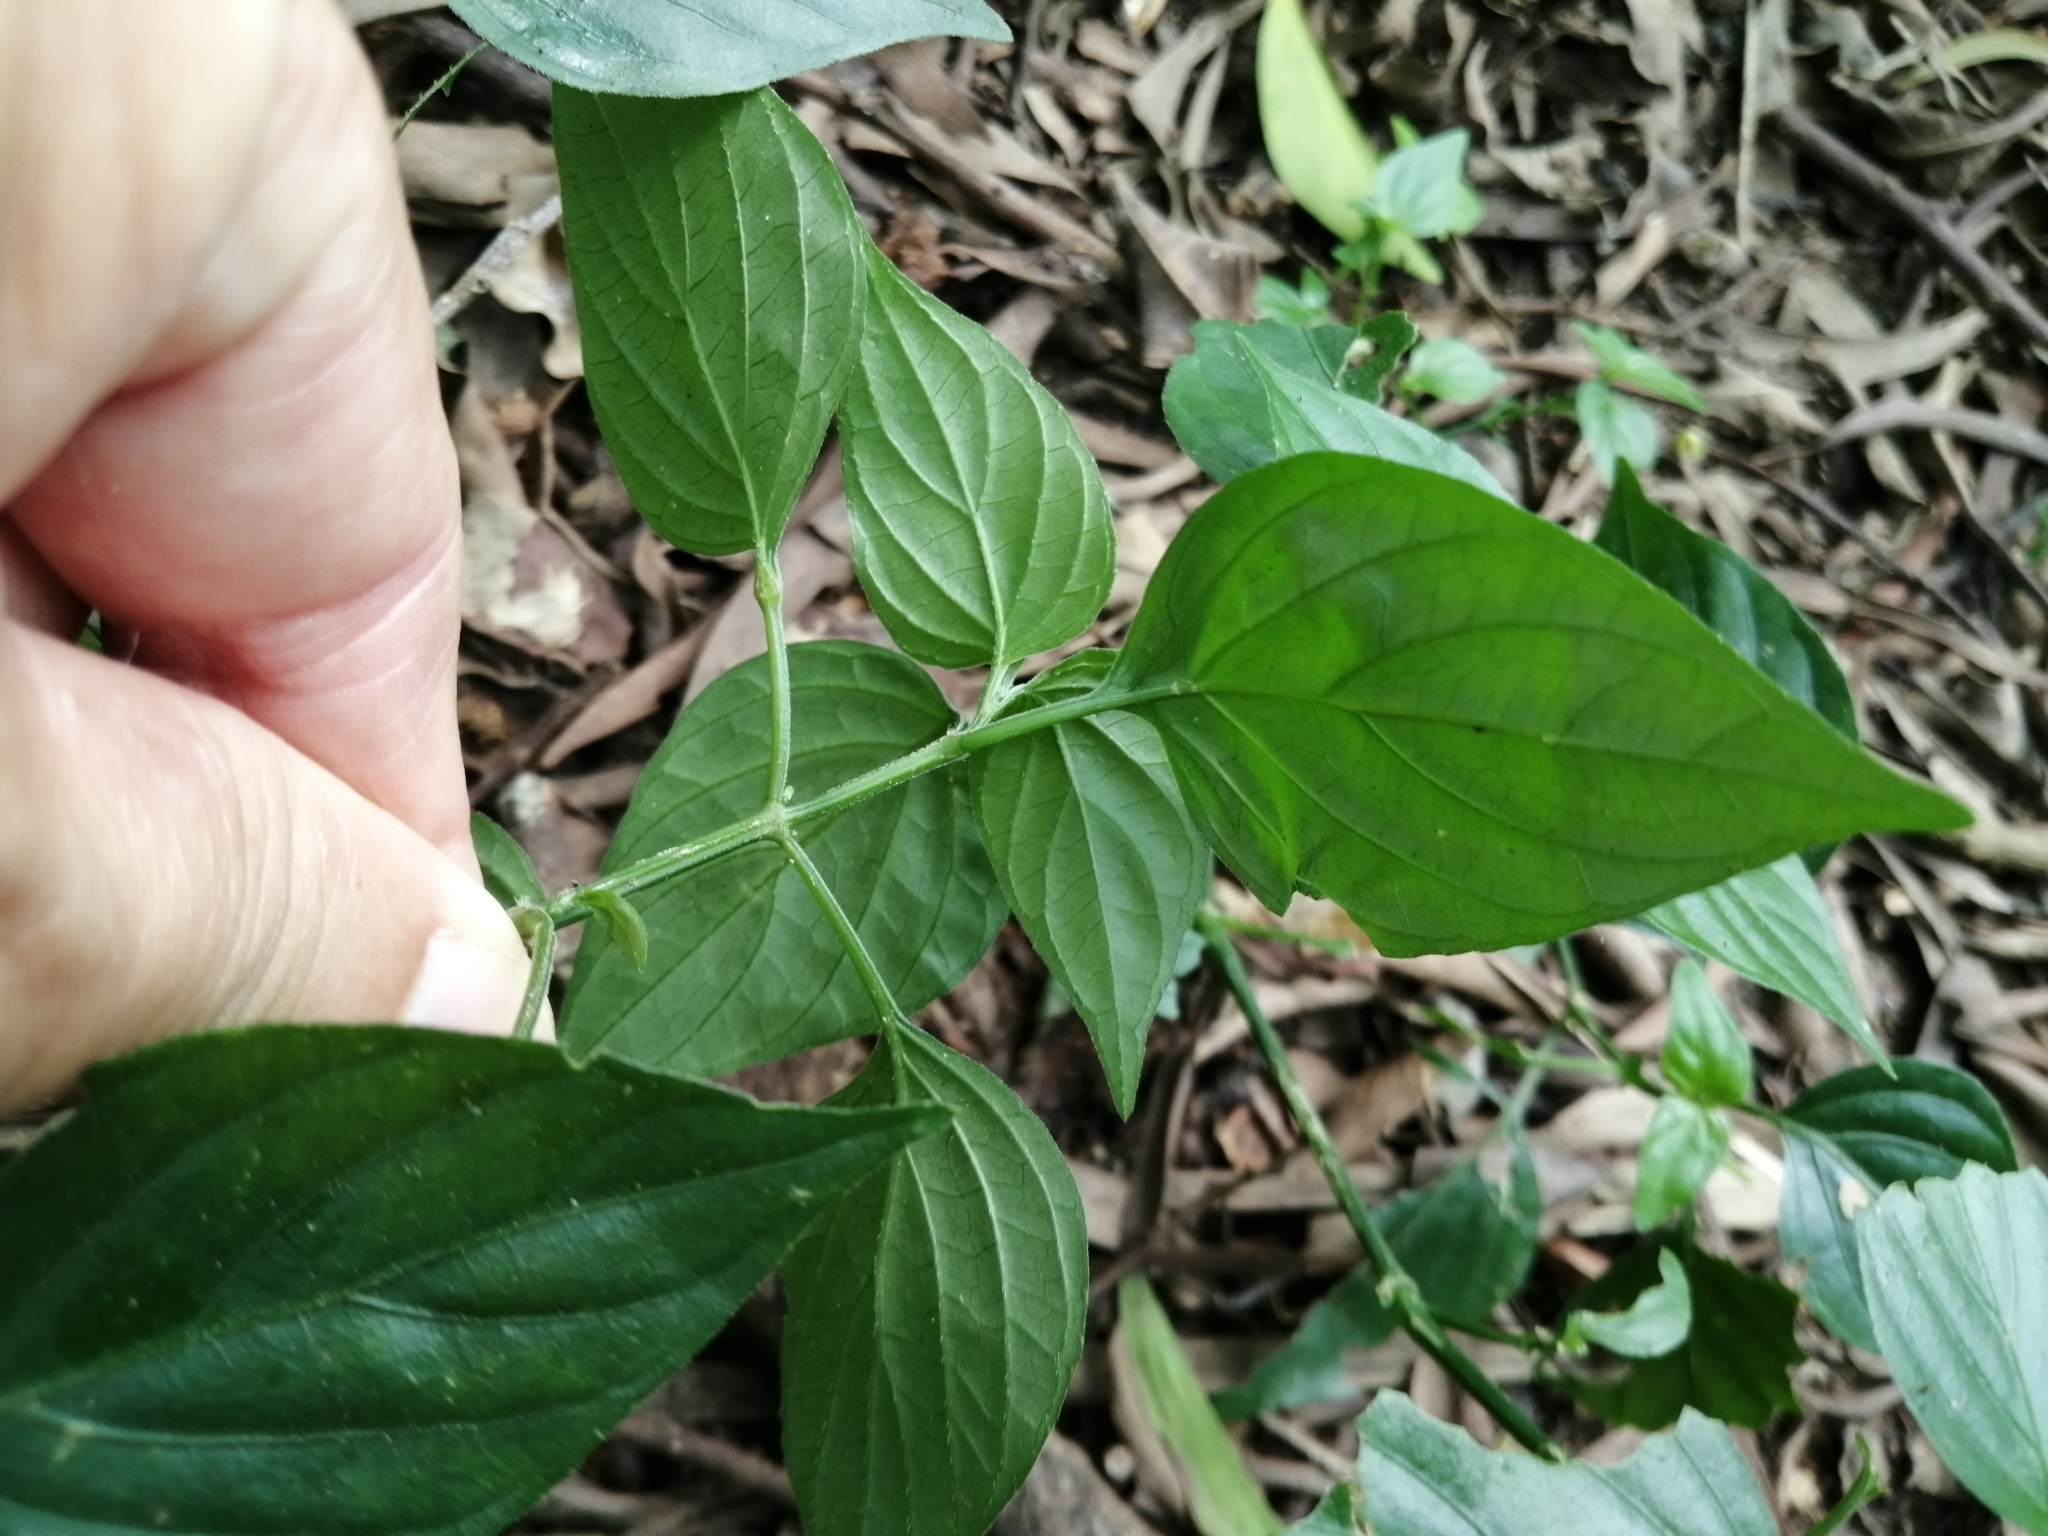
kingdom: Plantae
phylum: Tracheophyta
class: Magnoliopsida
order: Lamiales
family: Acanthaceae
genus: Dicliptera
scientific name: Dicliptera chinensis
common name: Chinese foldwing
